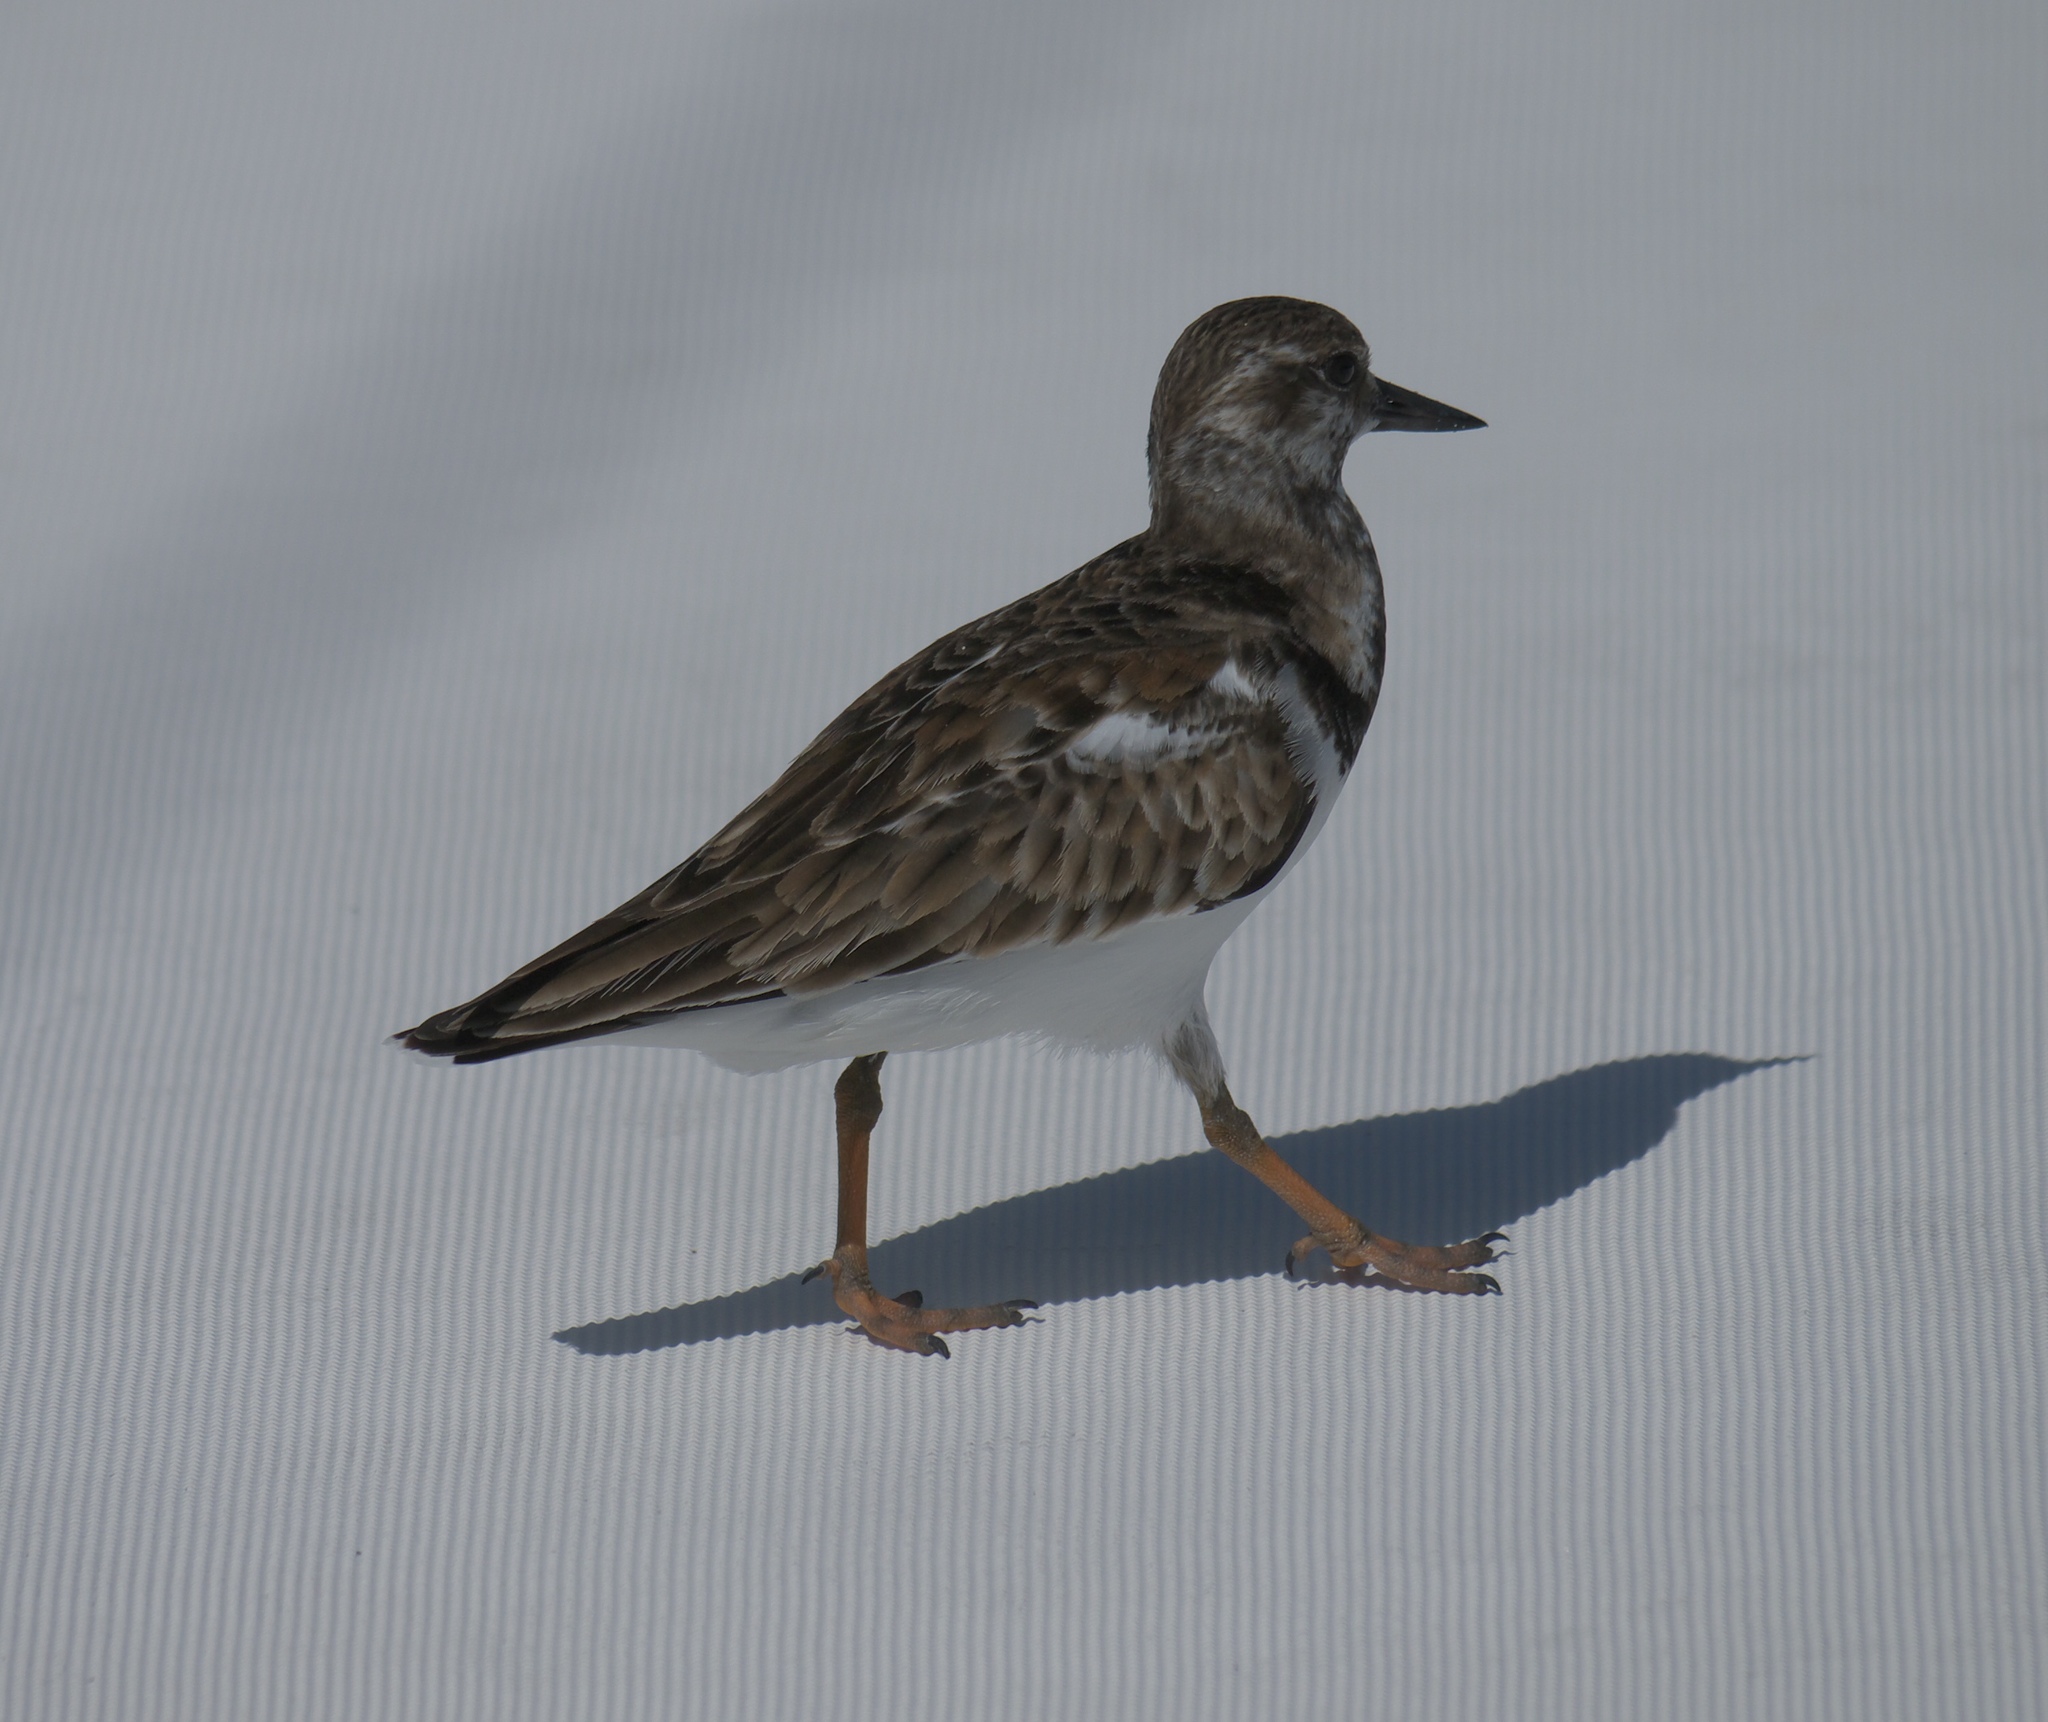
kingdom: Animalia
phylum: Chordata
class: Aves
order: Charadriiformes
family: Scolopacidae
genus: Arenaria
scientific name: Arenaria interpres
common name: Ruddy turnstone
